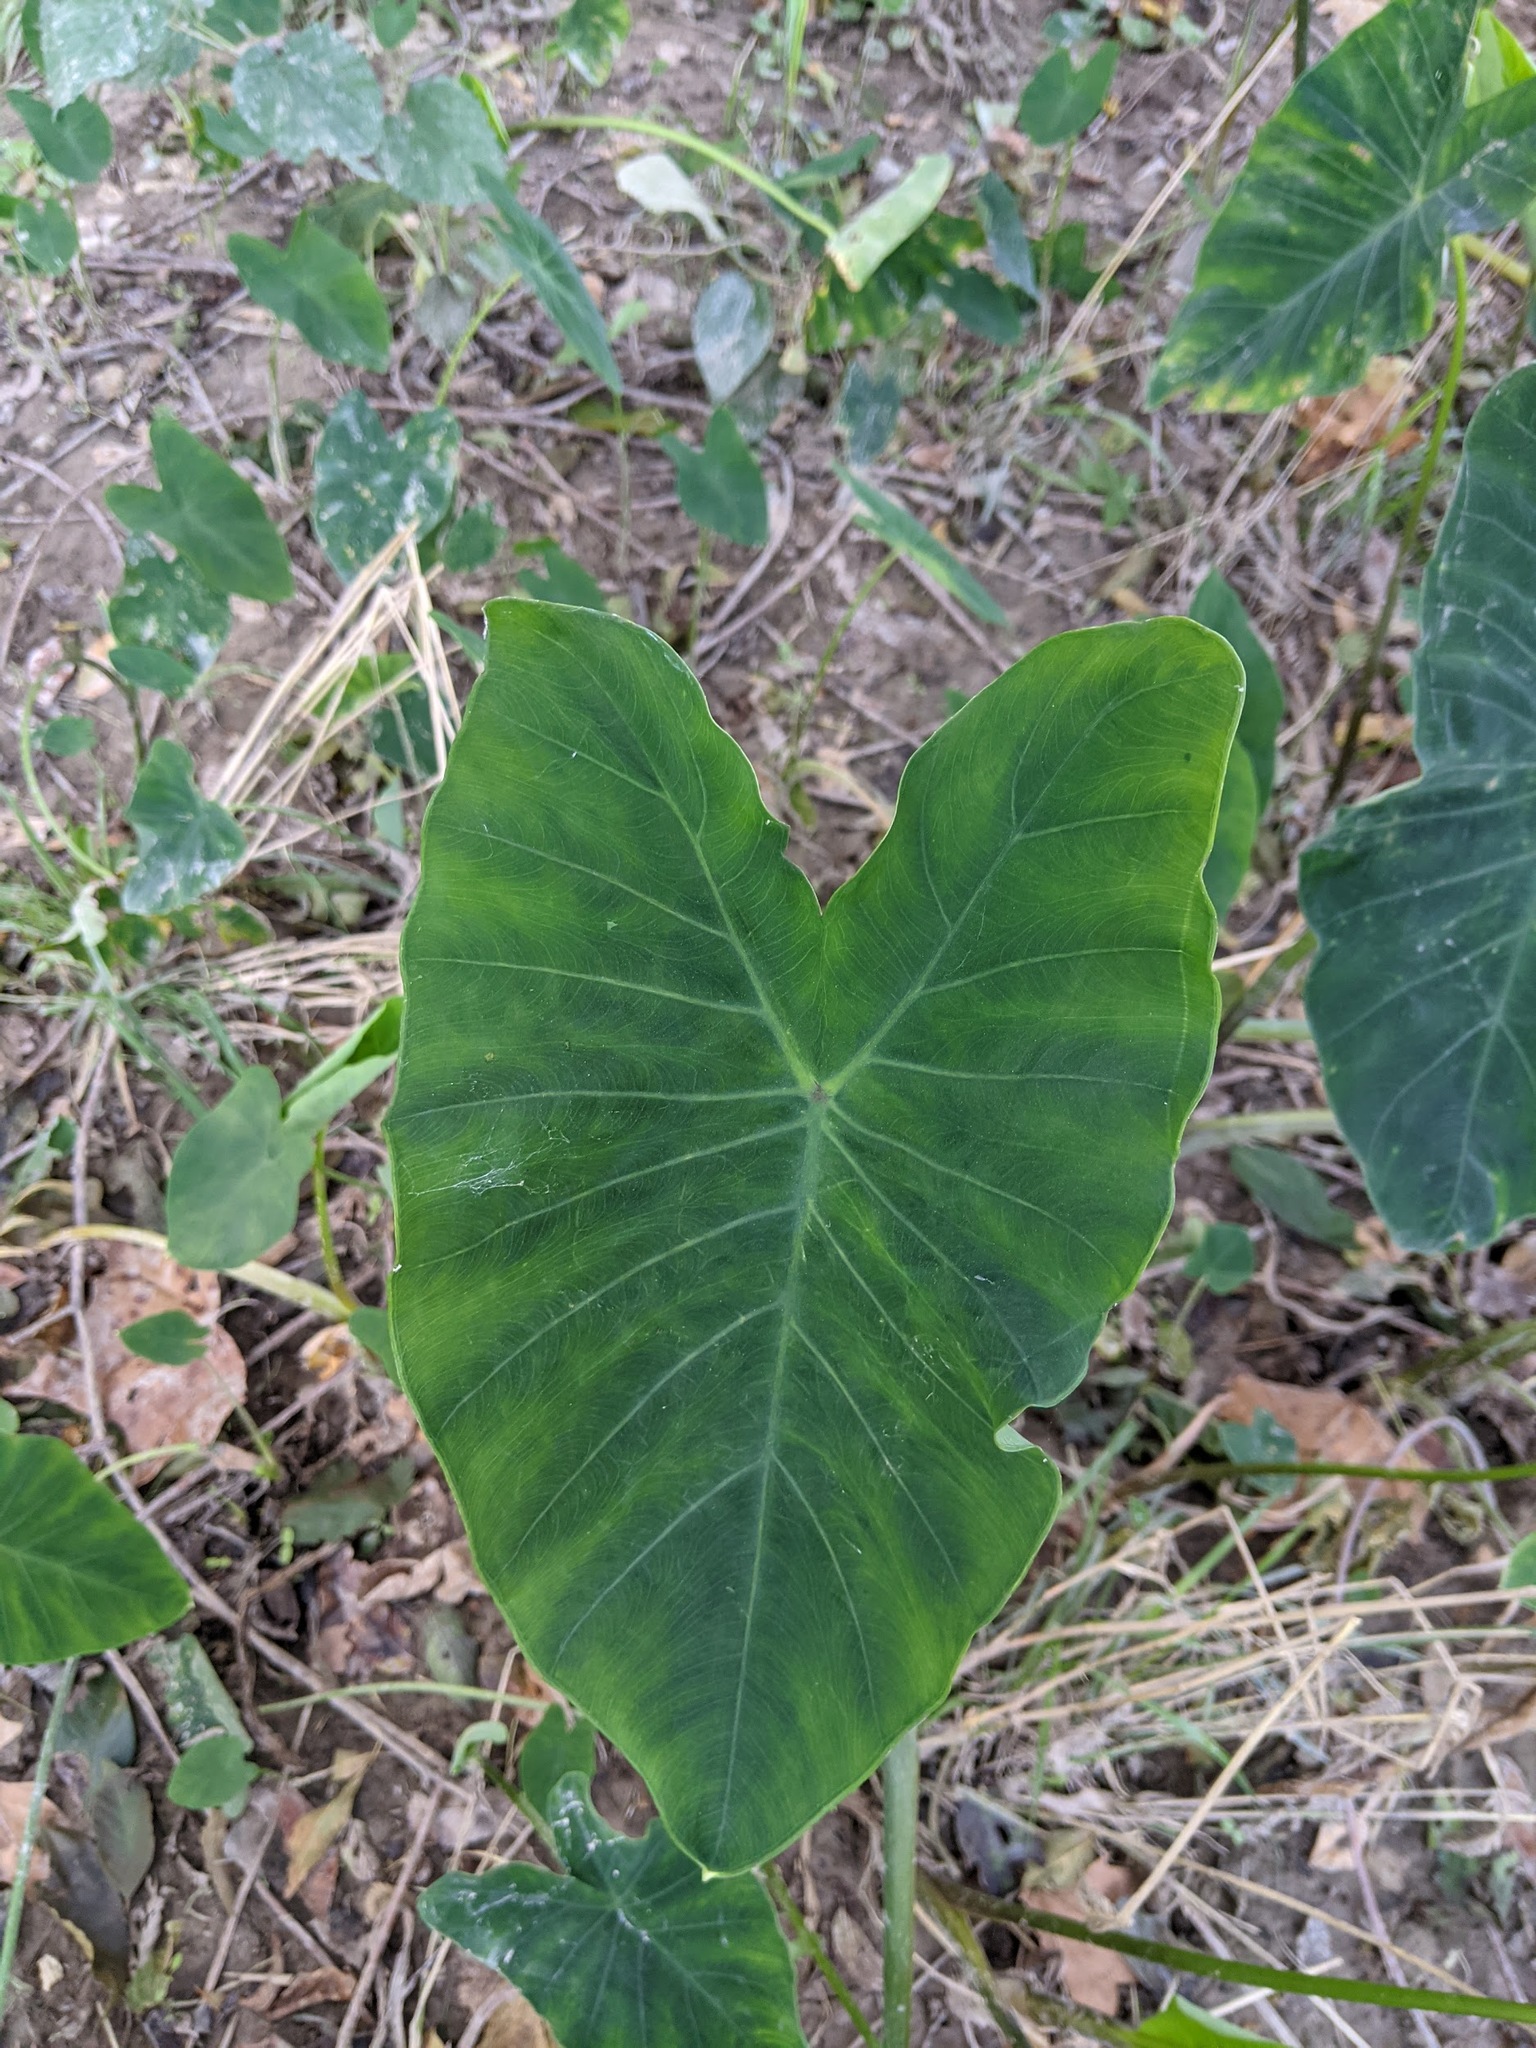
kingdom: Plantae
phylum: Tracheophyta
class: Liliopsida
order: Alismatales
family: Araceae
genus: Colocasia
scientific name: Colocasia esculenta
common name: Taro
